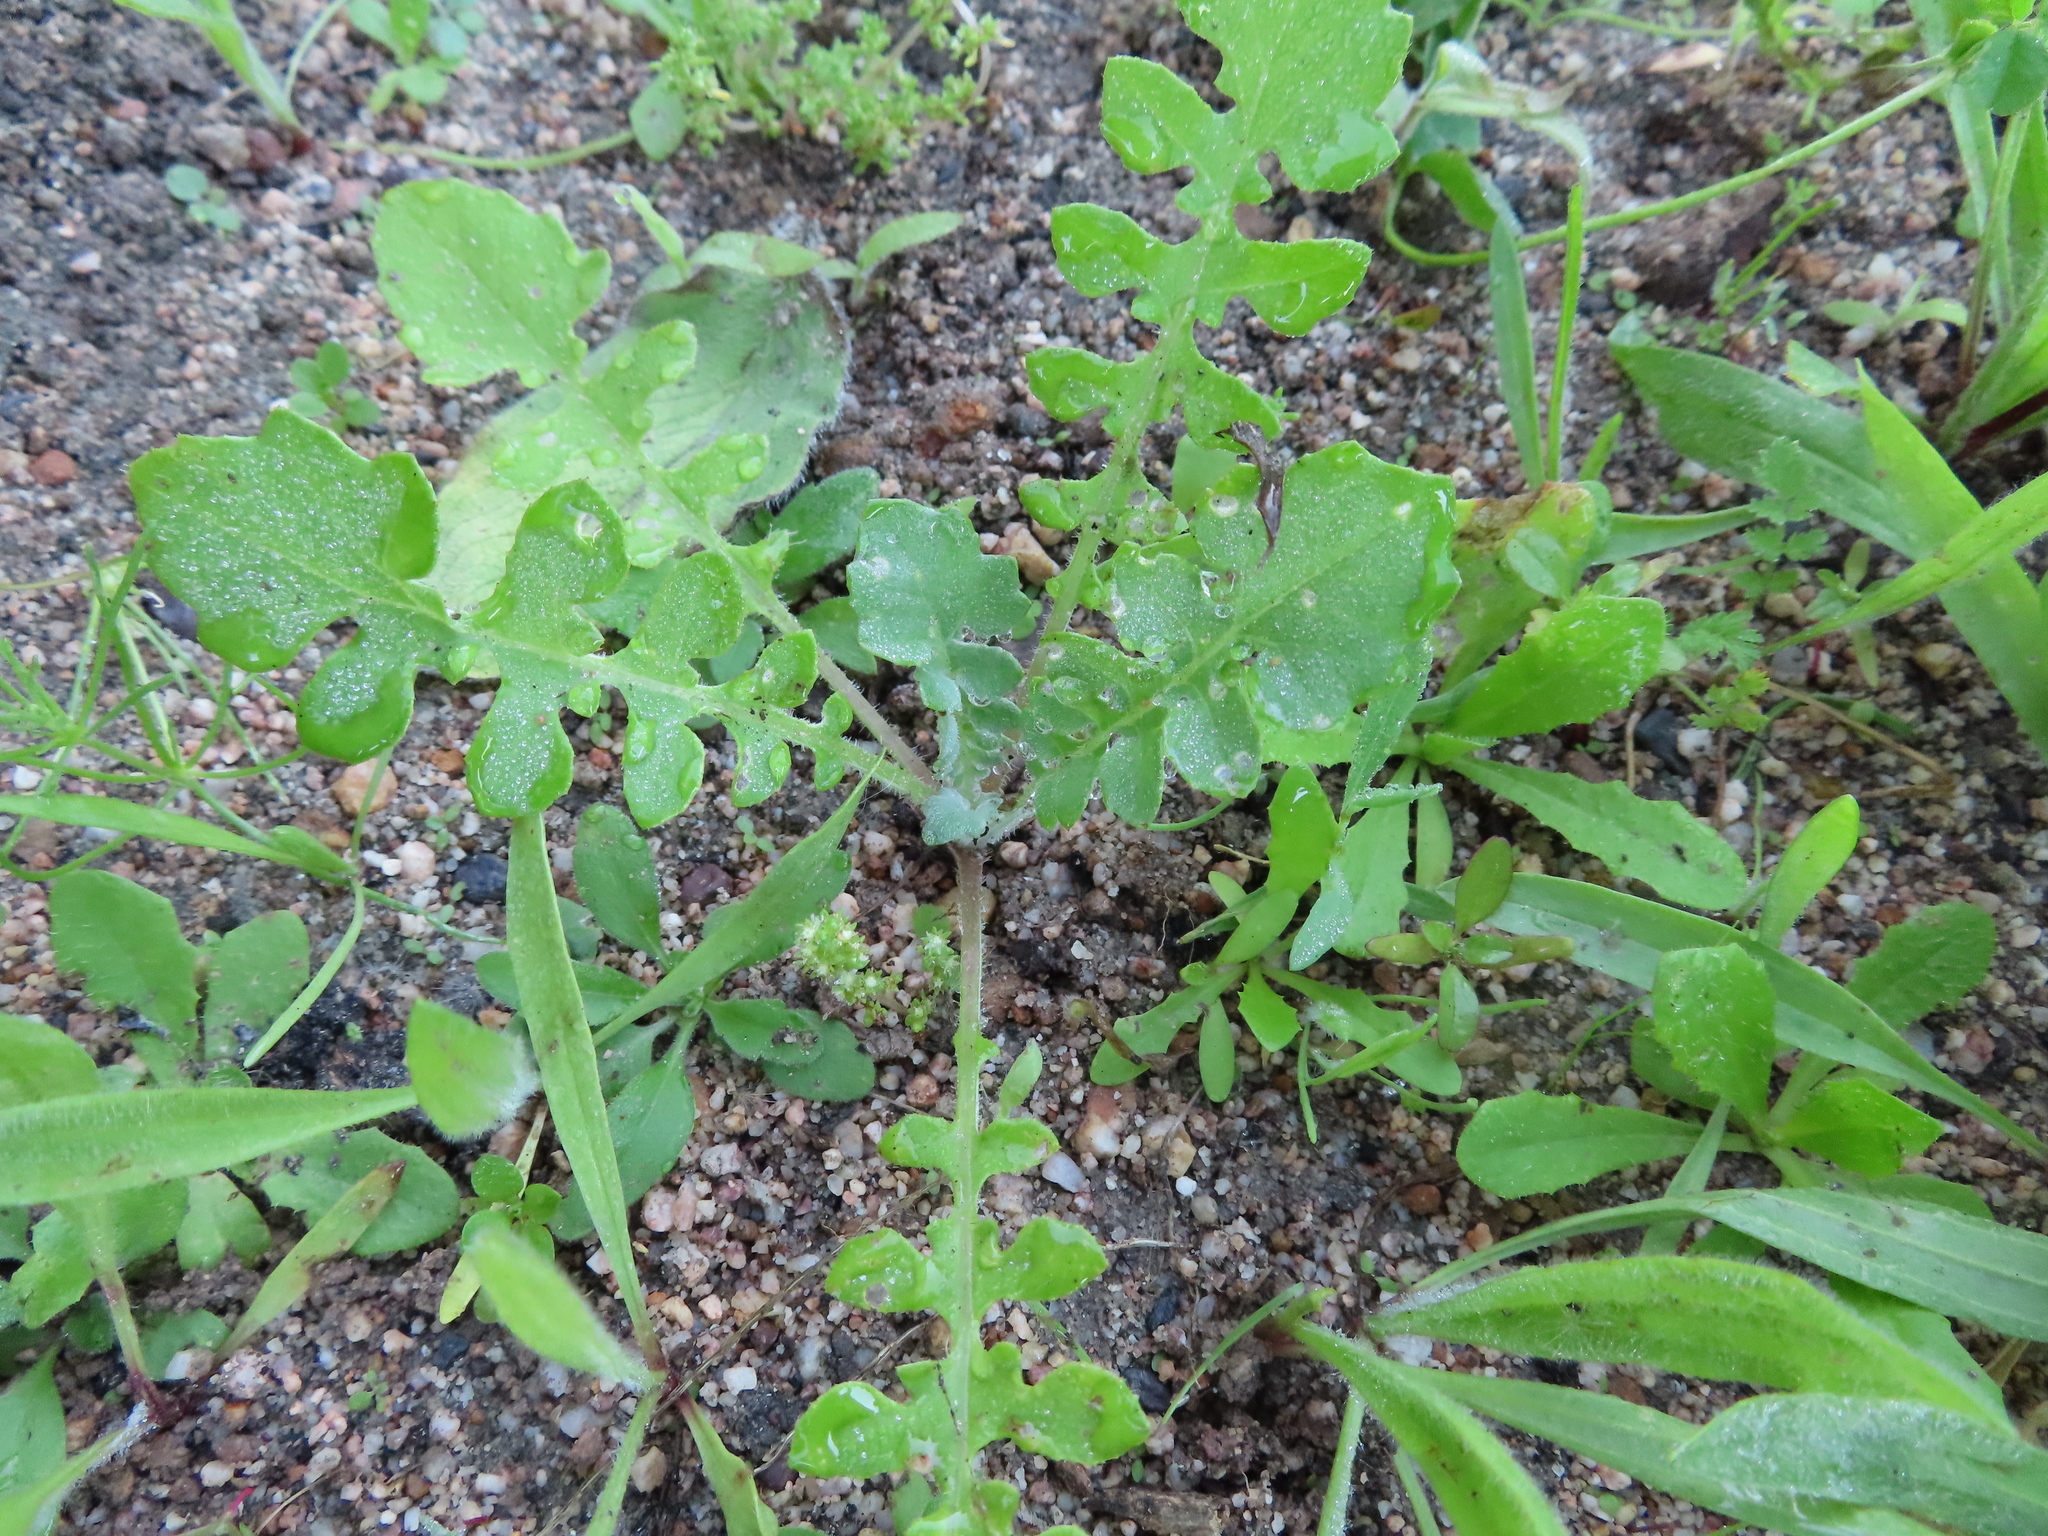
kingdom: Plantae
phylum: Tracheophyta
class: Magnoliopsida
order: Asterales
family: Asteraceae
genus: Arctotheca
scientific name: Arctotheca calendula
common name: Capeweed
